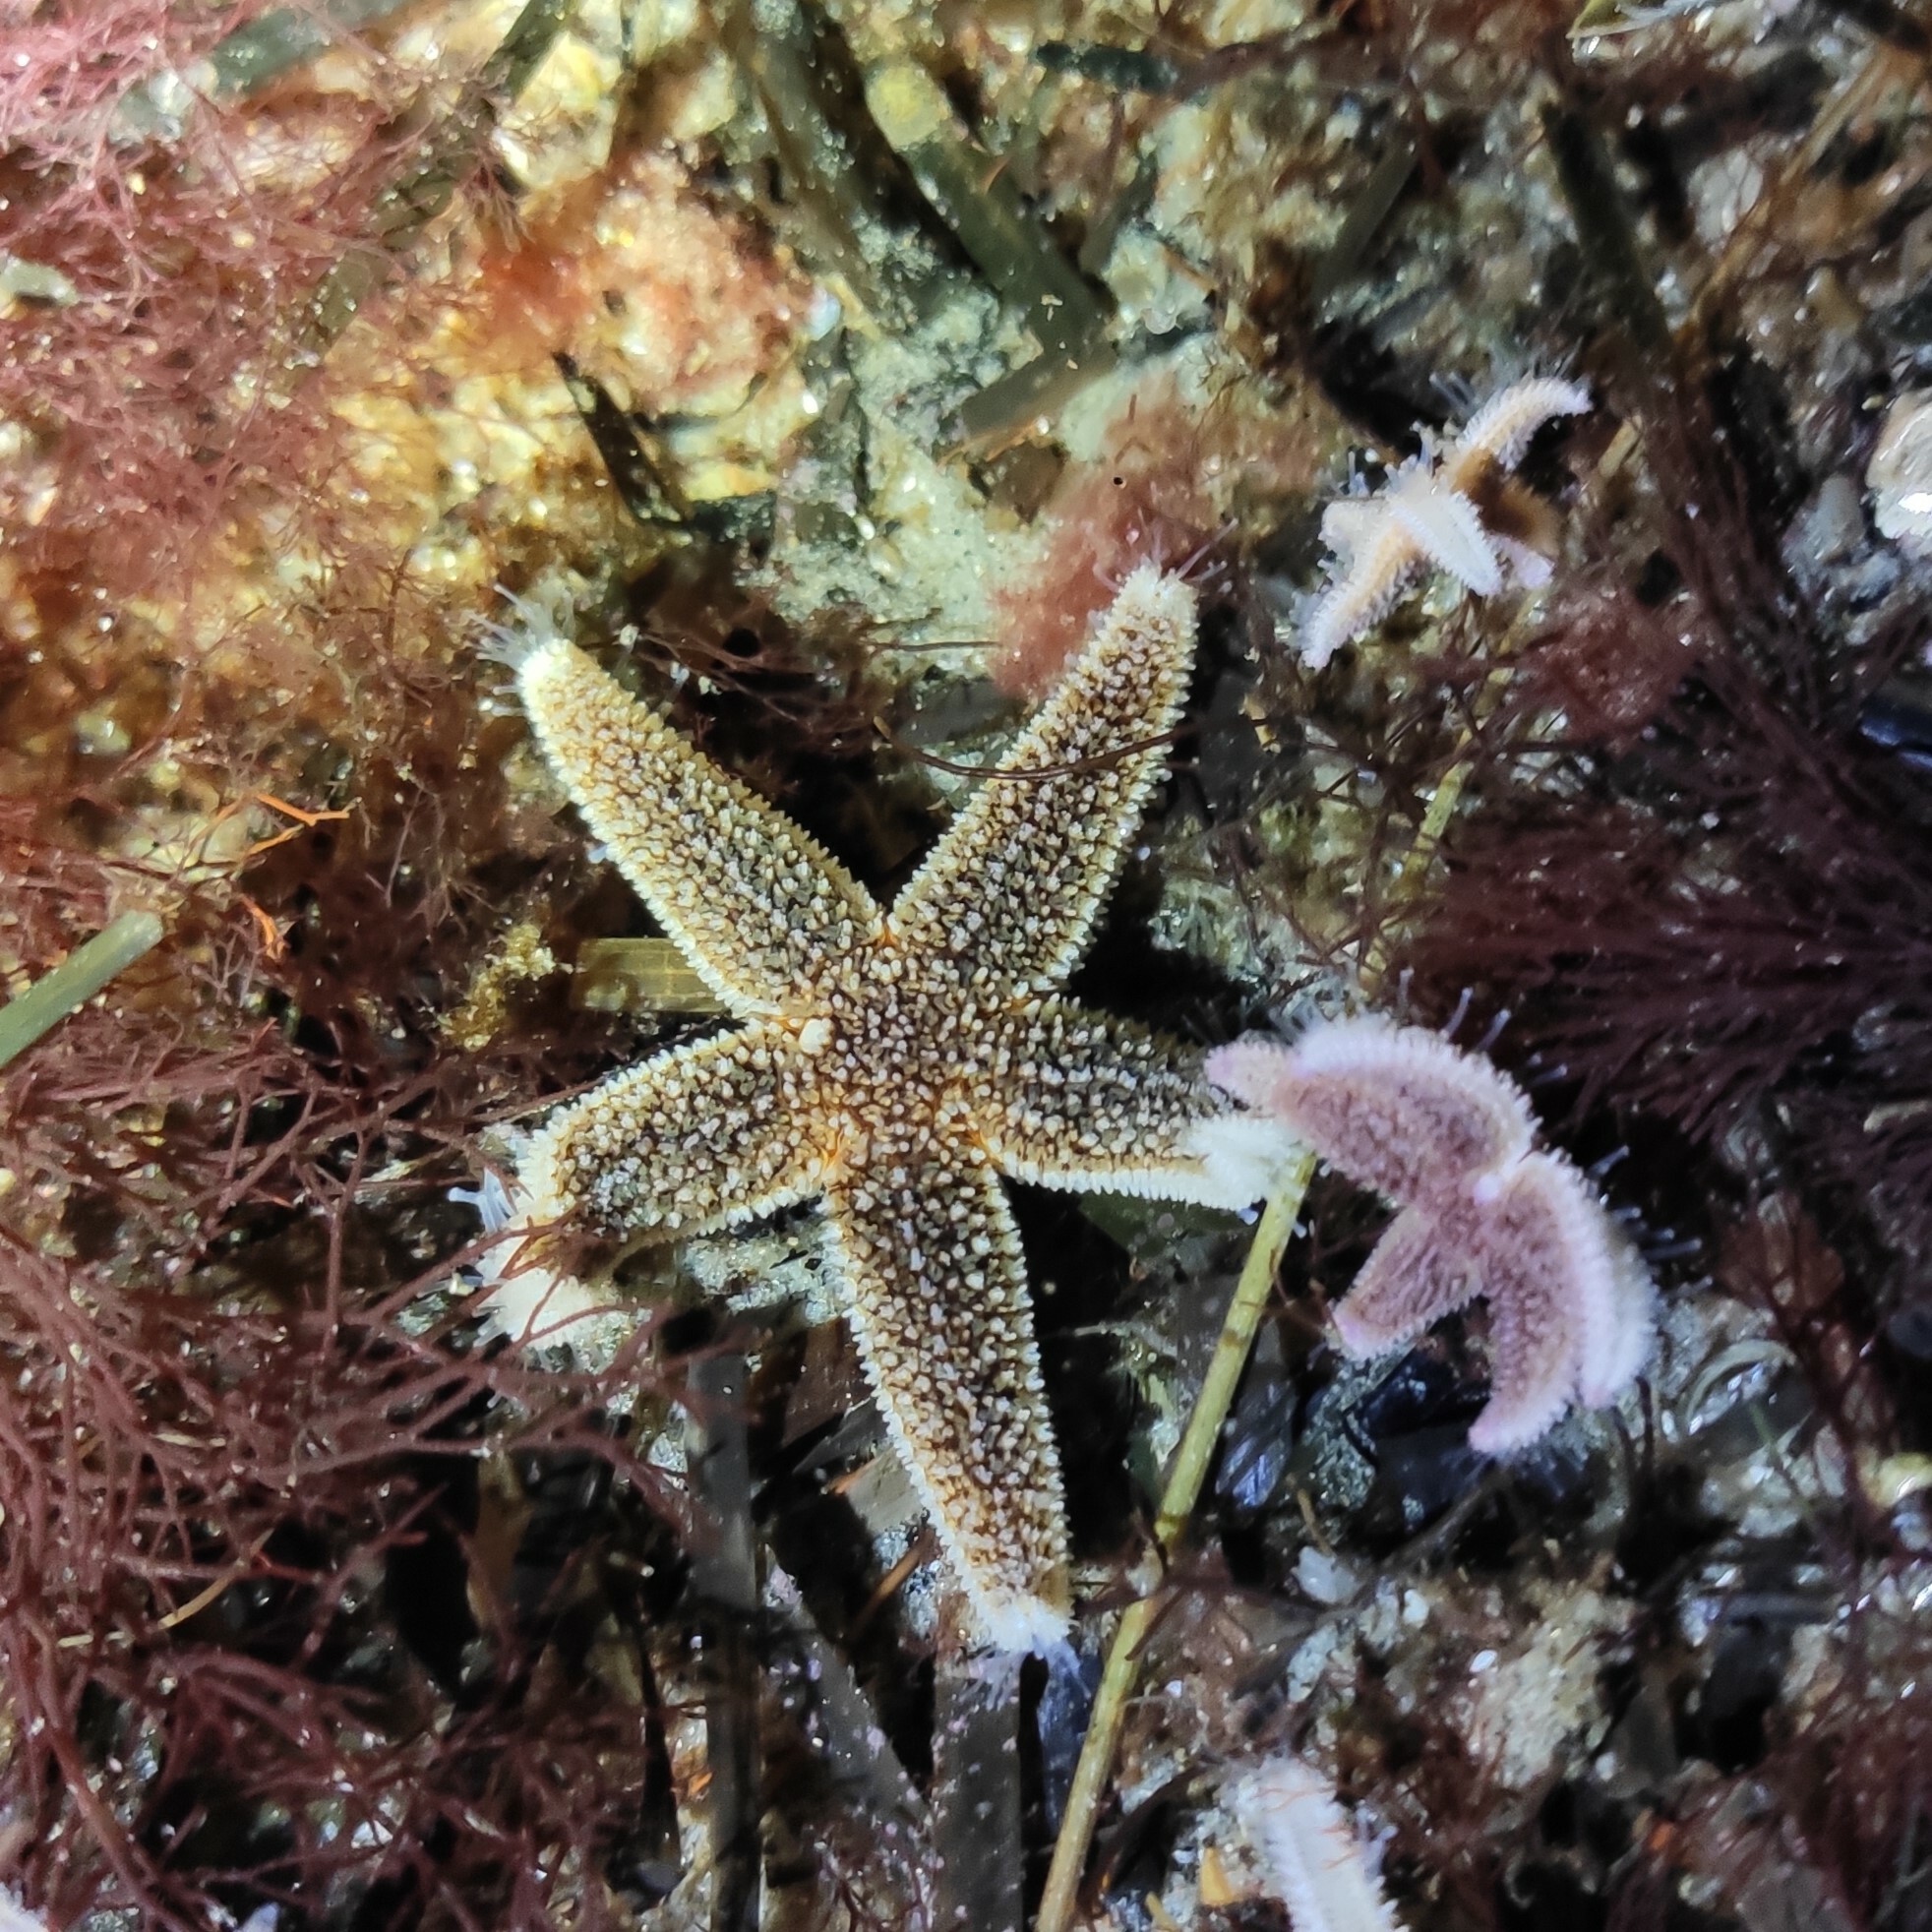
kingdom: Animalia
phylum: Echinodermata
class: Asteroidea
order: Forcipulatida
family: Asteriidae
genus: Asterias
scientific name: Asterias rubens
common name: Common starfish
